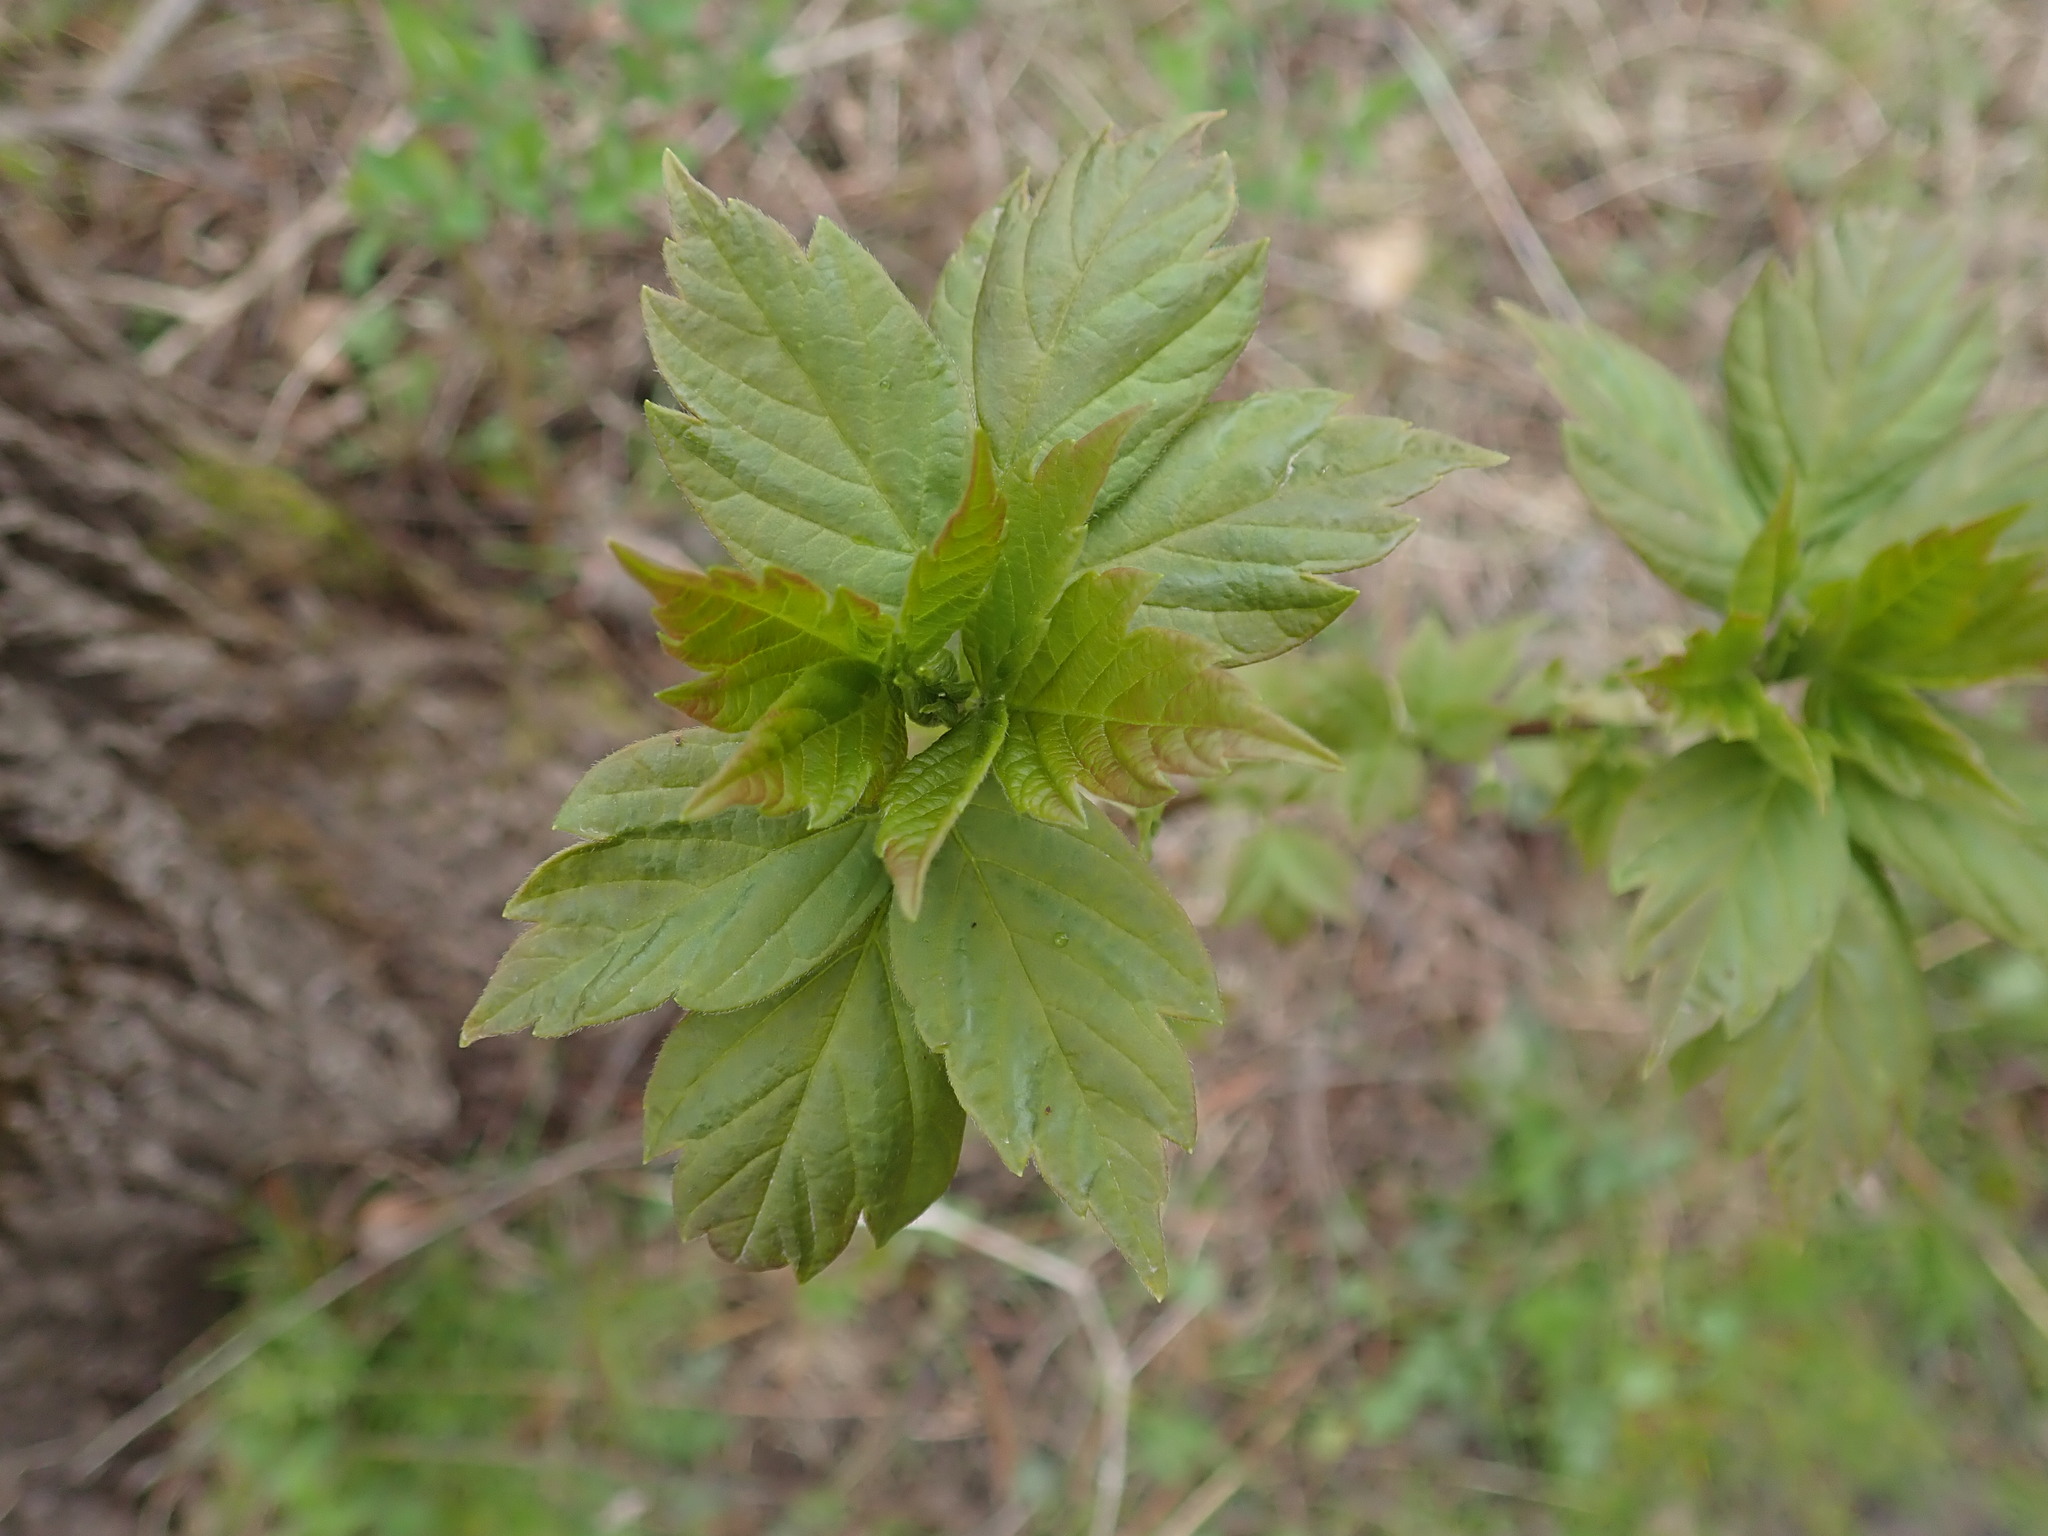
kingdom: Plantae
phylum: Tracheophyta
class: Magnoliopsida
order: Sapindales
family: Sapindaceae
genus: Acer
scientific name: Acer negundo
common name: Ashleaf maple
